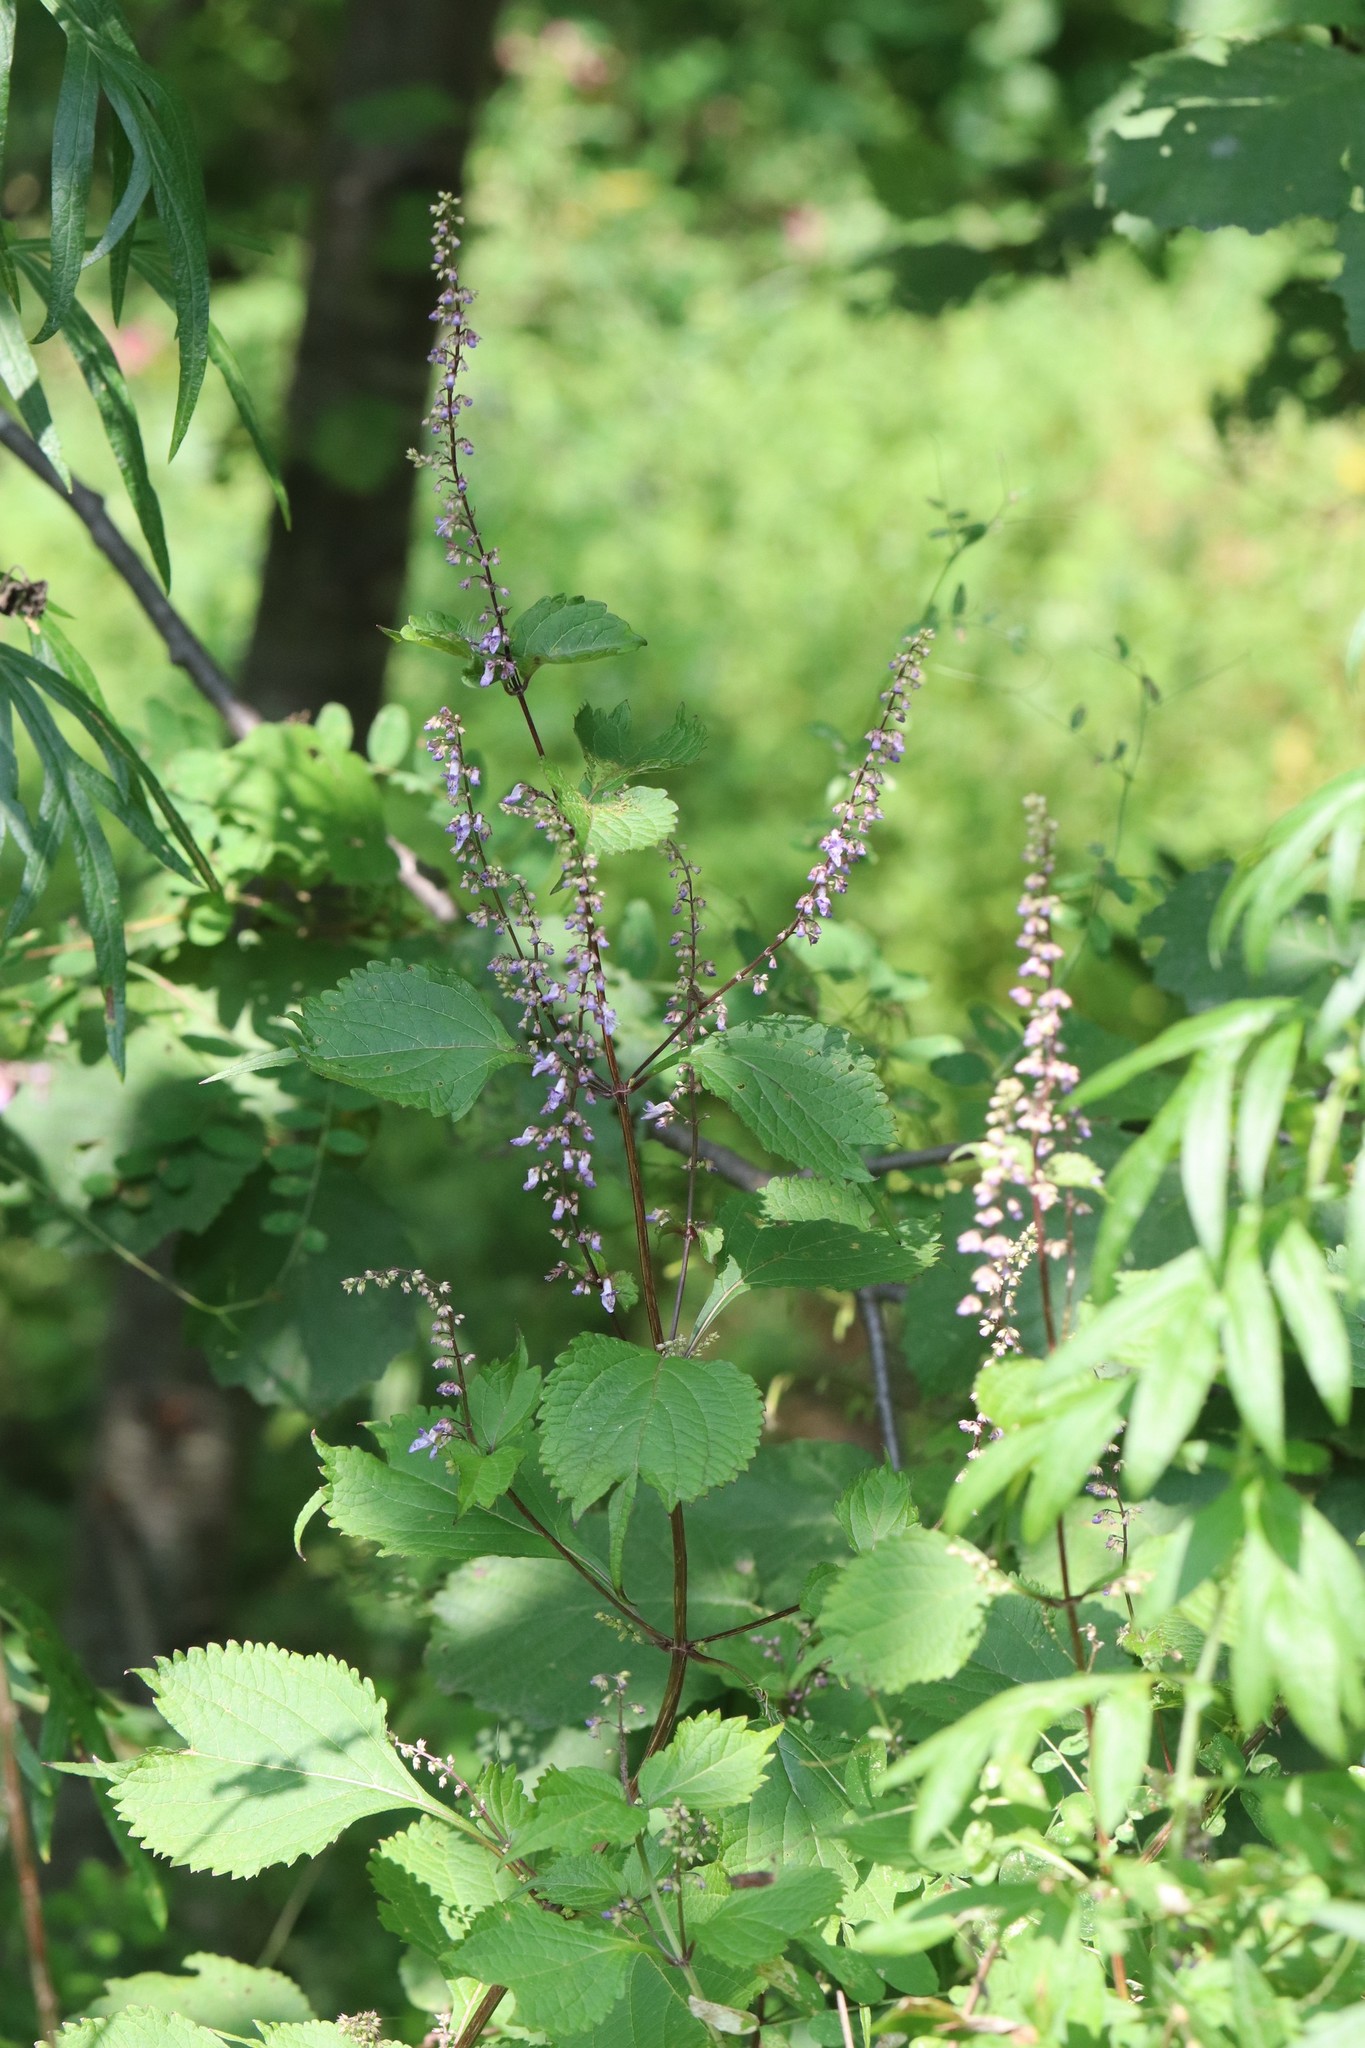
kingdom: Plantae
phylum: Tracheophyta
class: Magnoliopsida
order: Lamiales
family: Lamiaceae
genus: Isodon
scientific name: Isodon excisus
